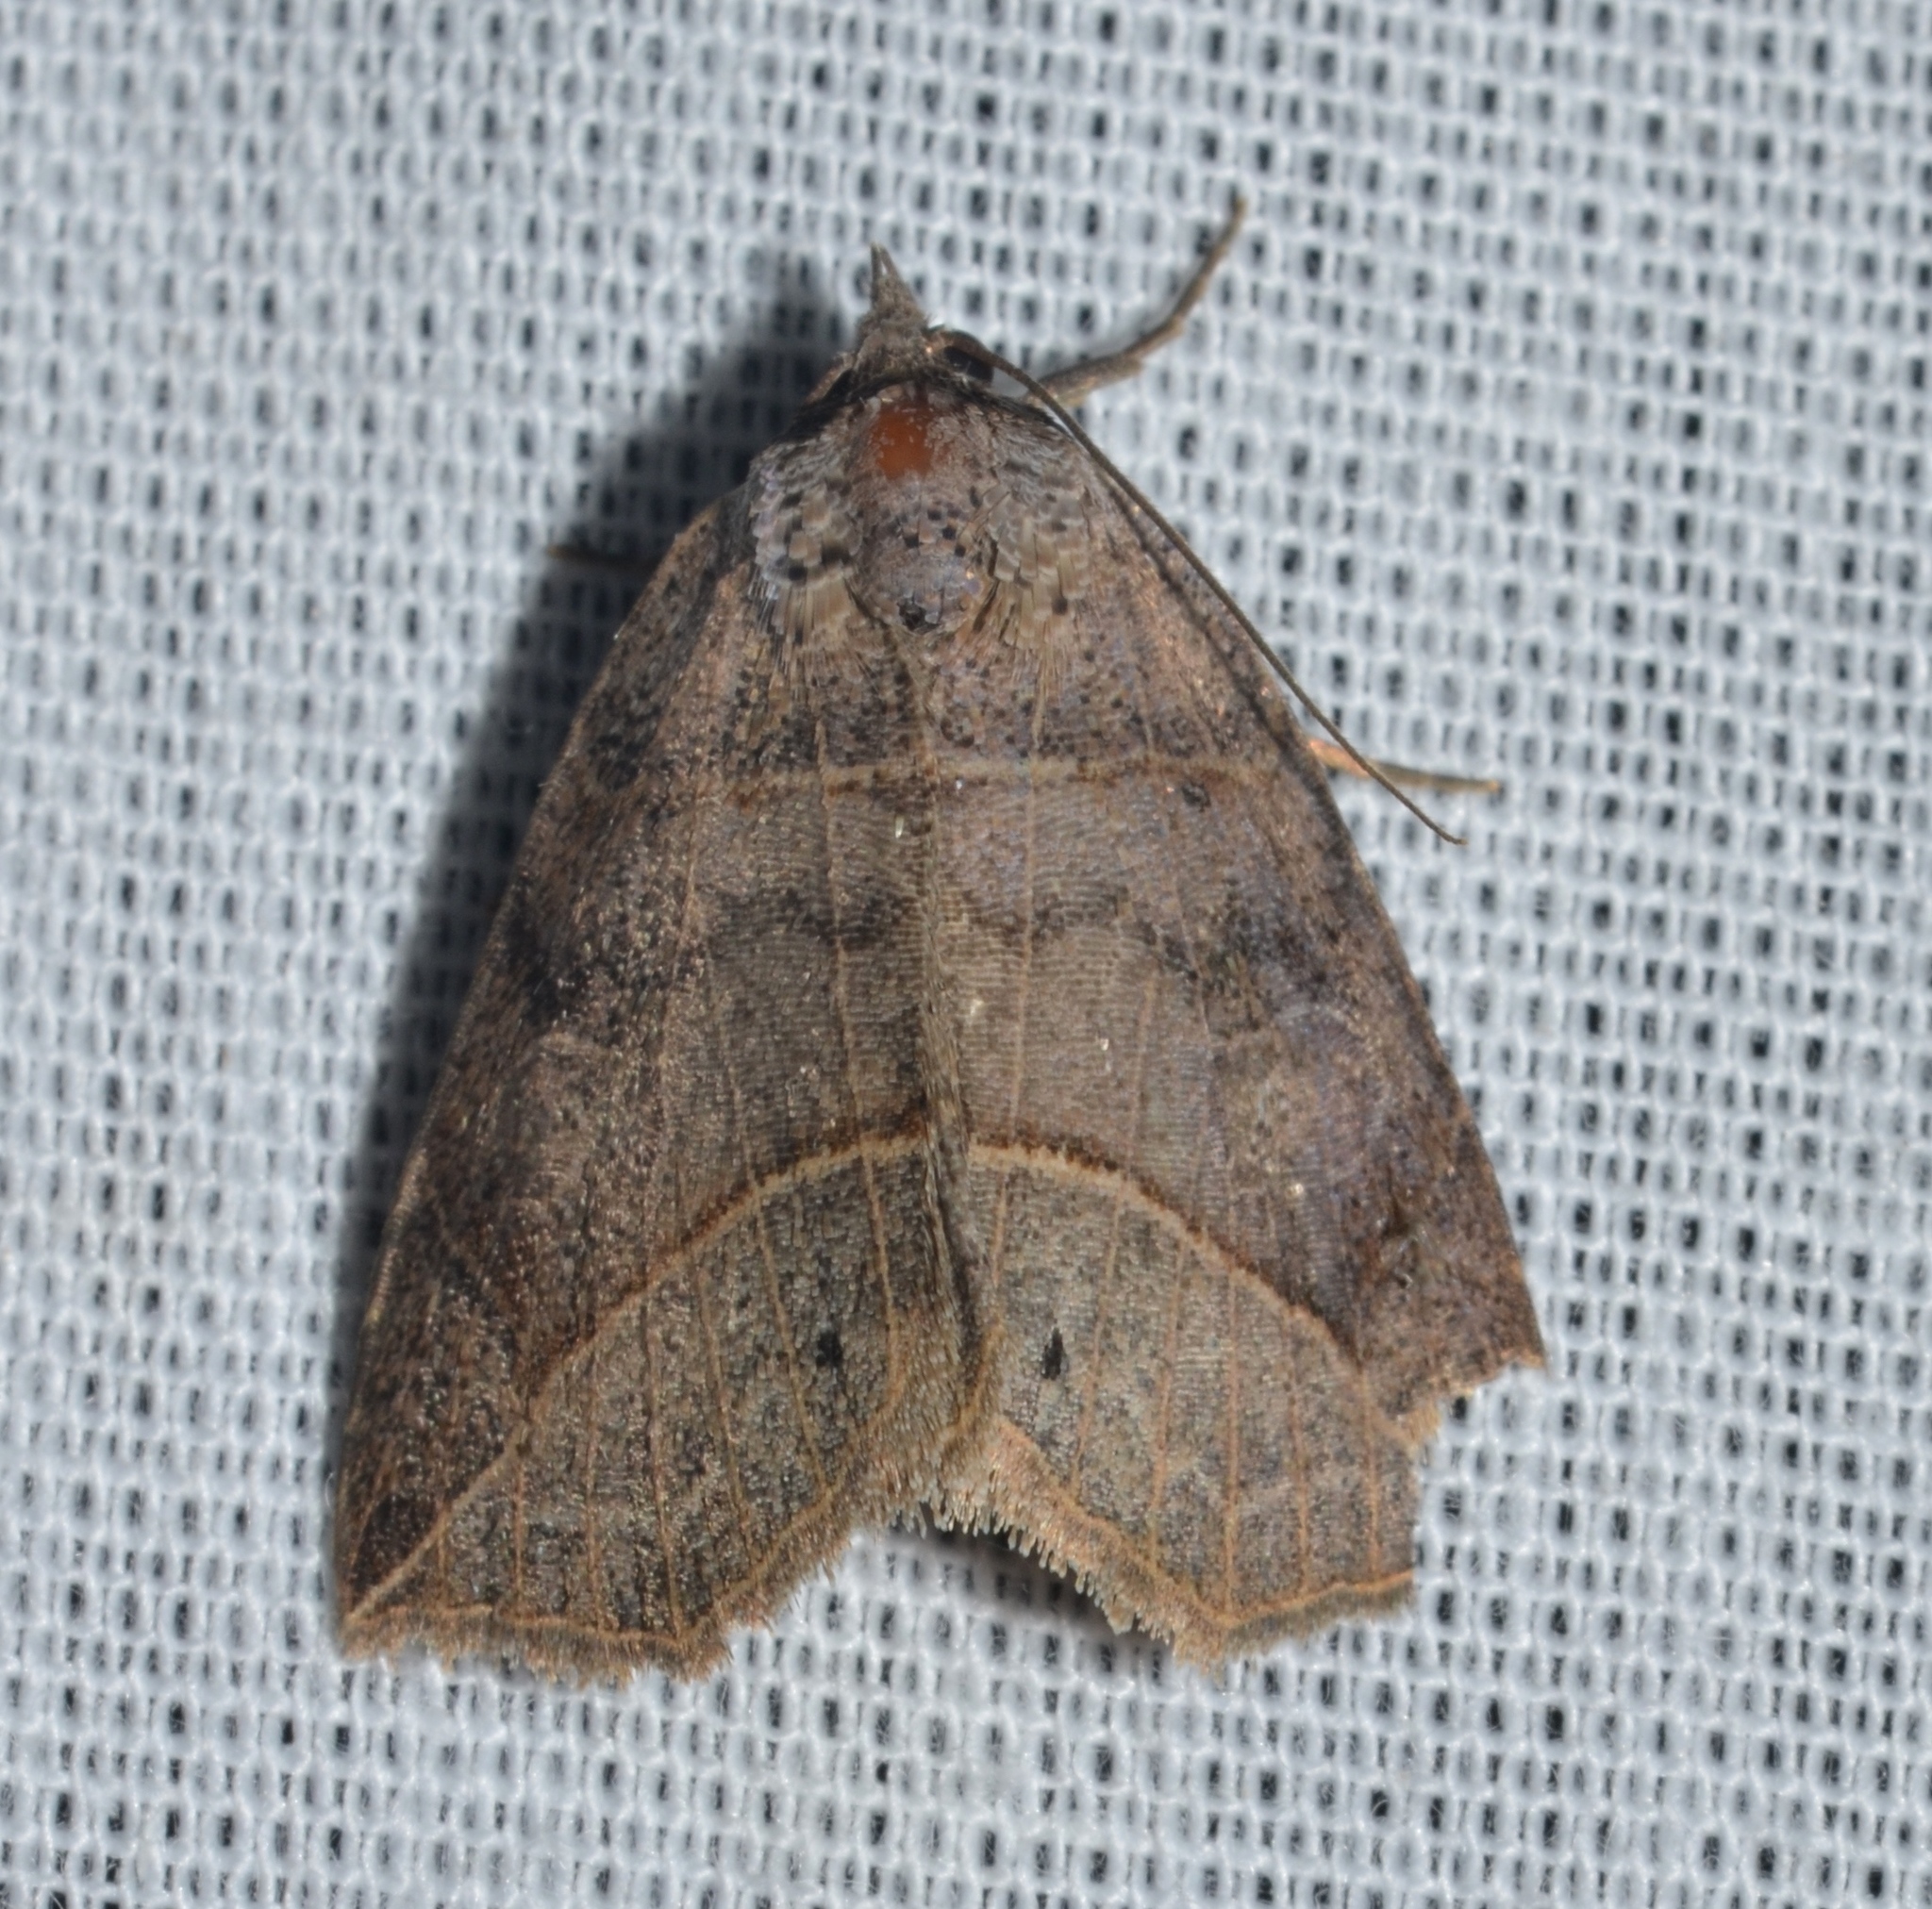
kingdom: Animalia
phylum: Arthropoda
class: Insecta
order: Lepidoptera
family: Erebidae
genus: Isogona
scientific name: Isogona tenuis
